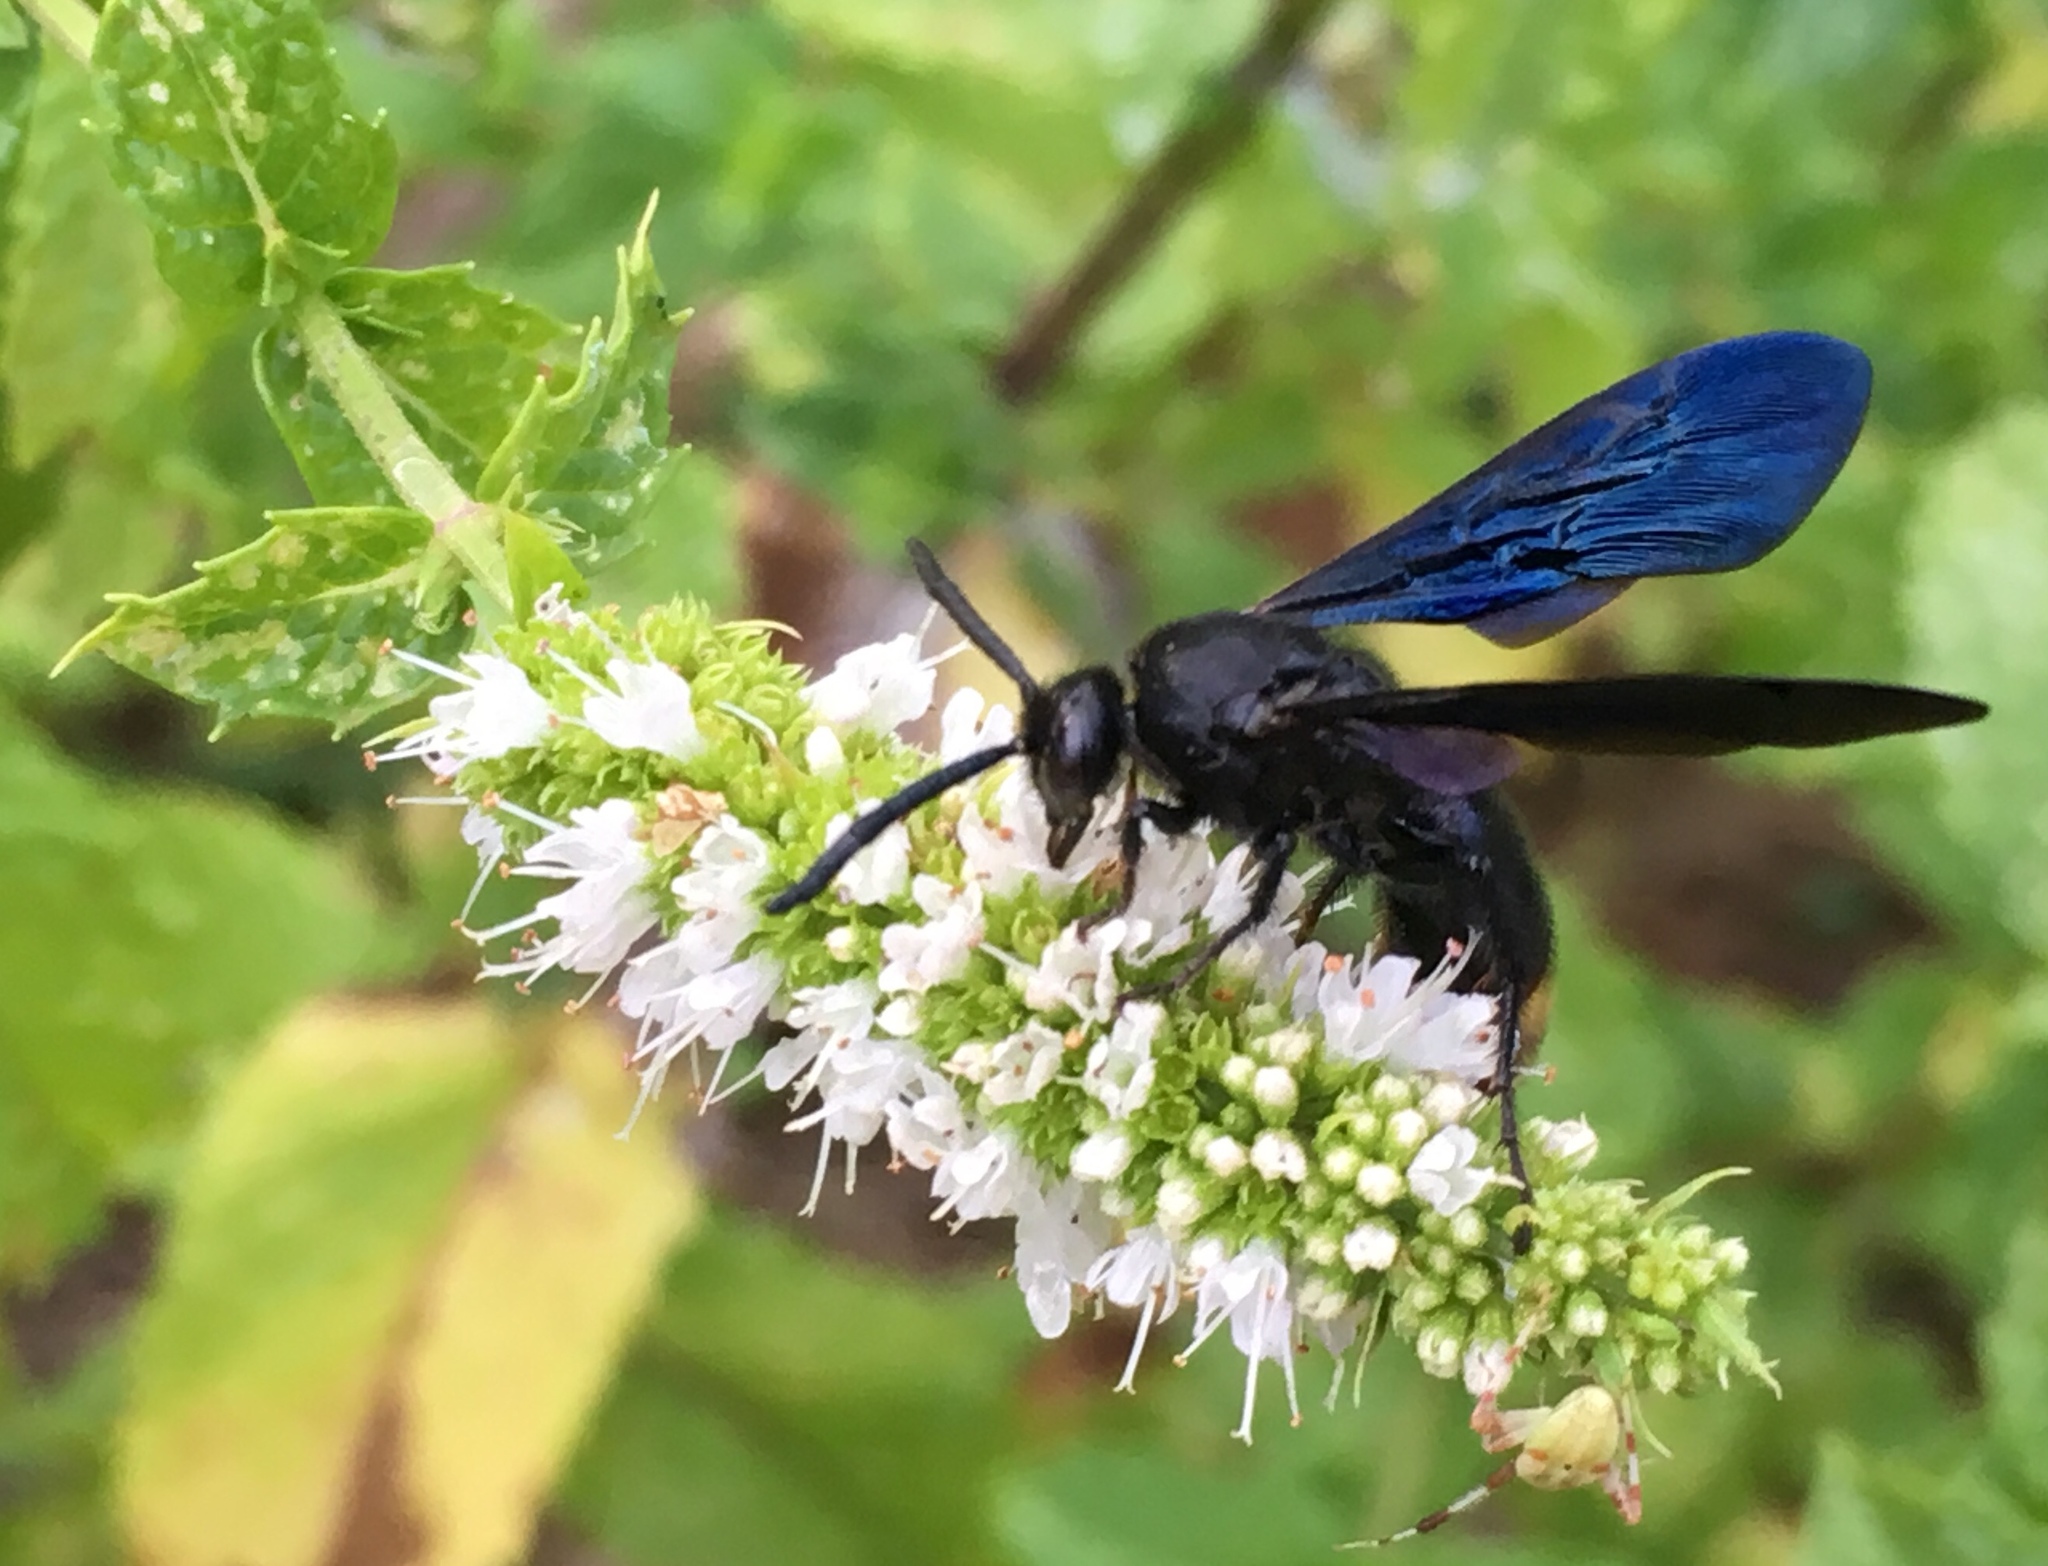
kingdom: Animalia
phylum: Arthropoda
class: Insecta
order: Hymenoptera
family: Scoliidae
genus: Scolia
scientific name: Scolia dubia
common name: Blue-winged scoliid wasp
